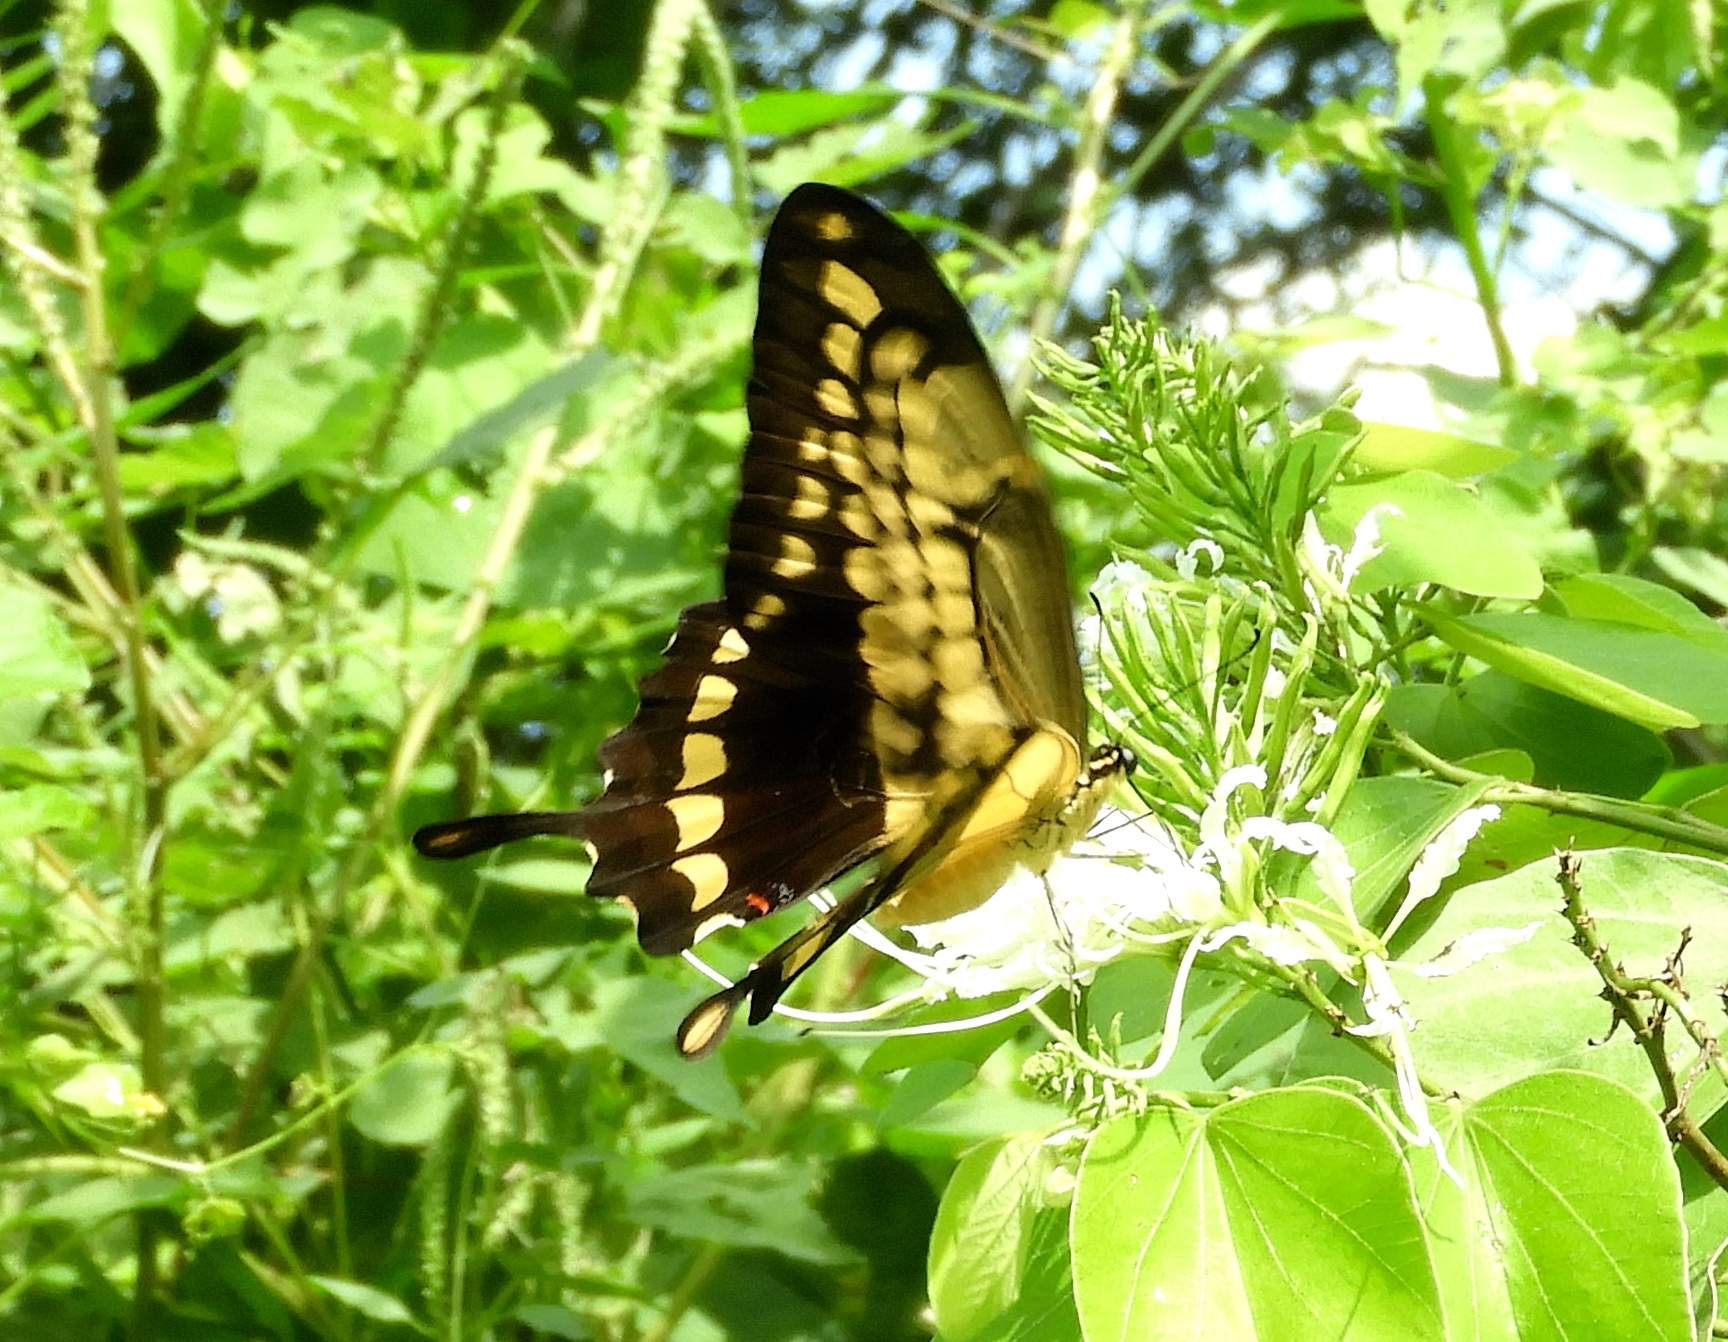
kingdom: Animalia
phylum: Arthropoda
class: Insecta
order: Lepidoptera
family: Papilionidae
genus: Papilio
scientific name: Papilio thoas
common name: King swallowtail
